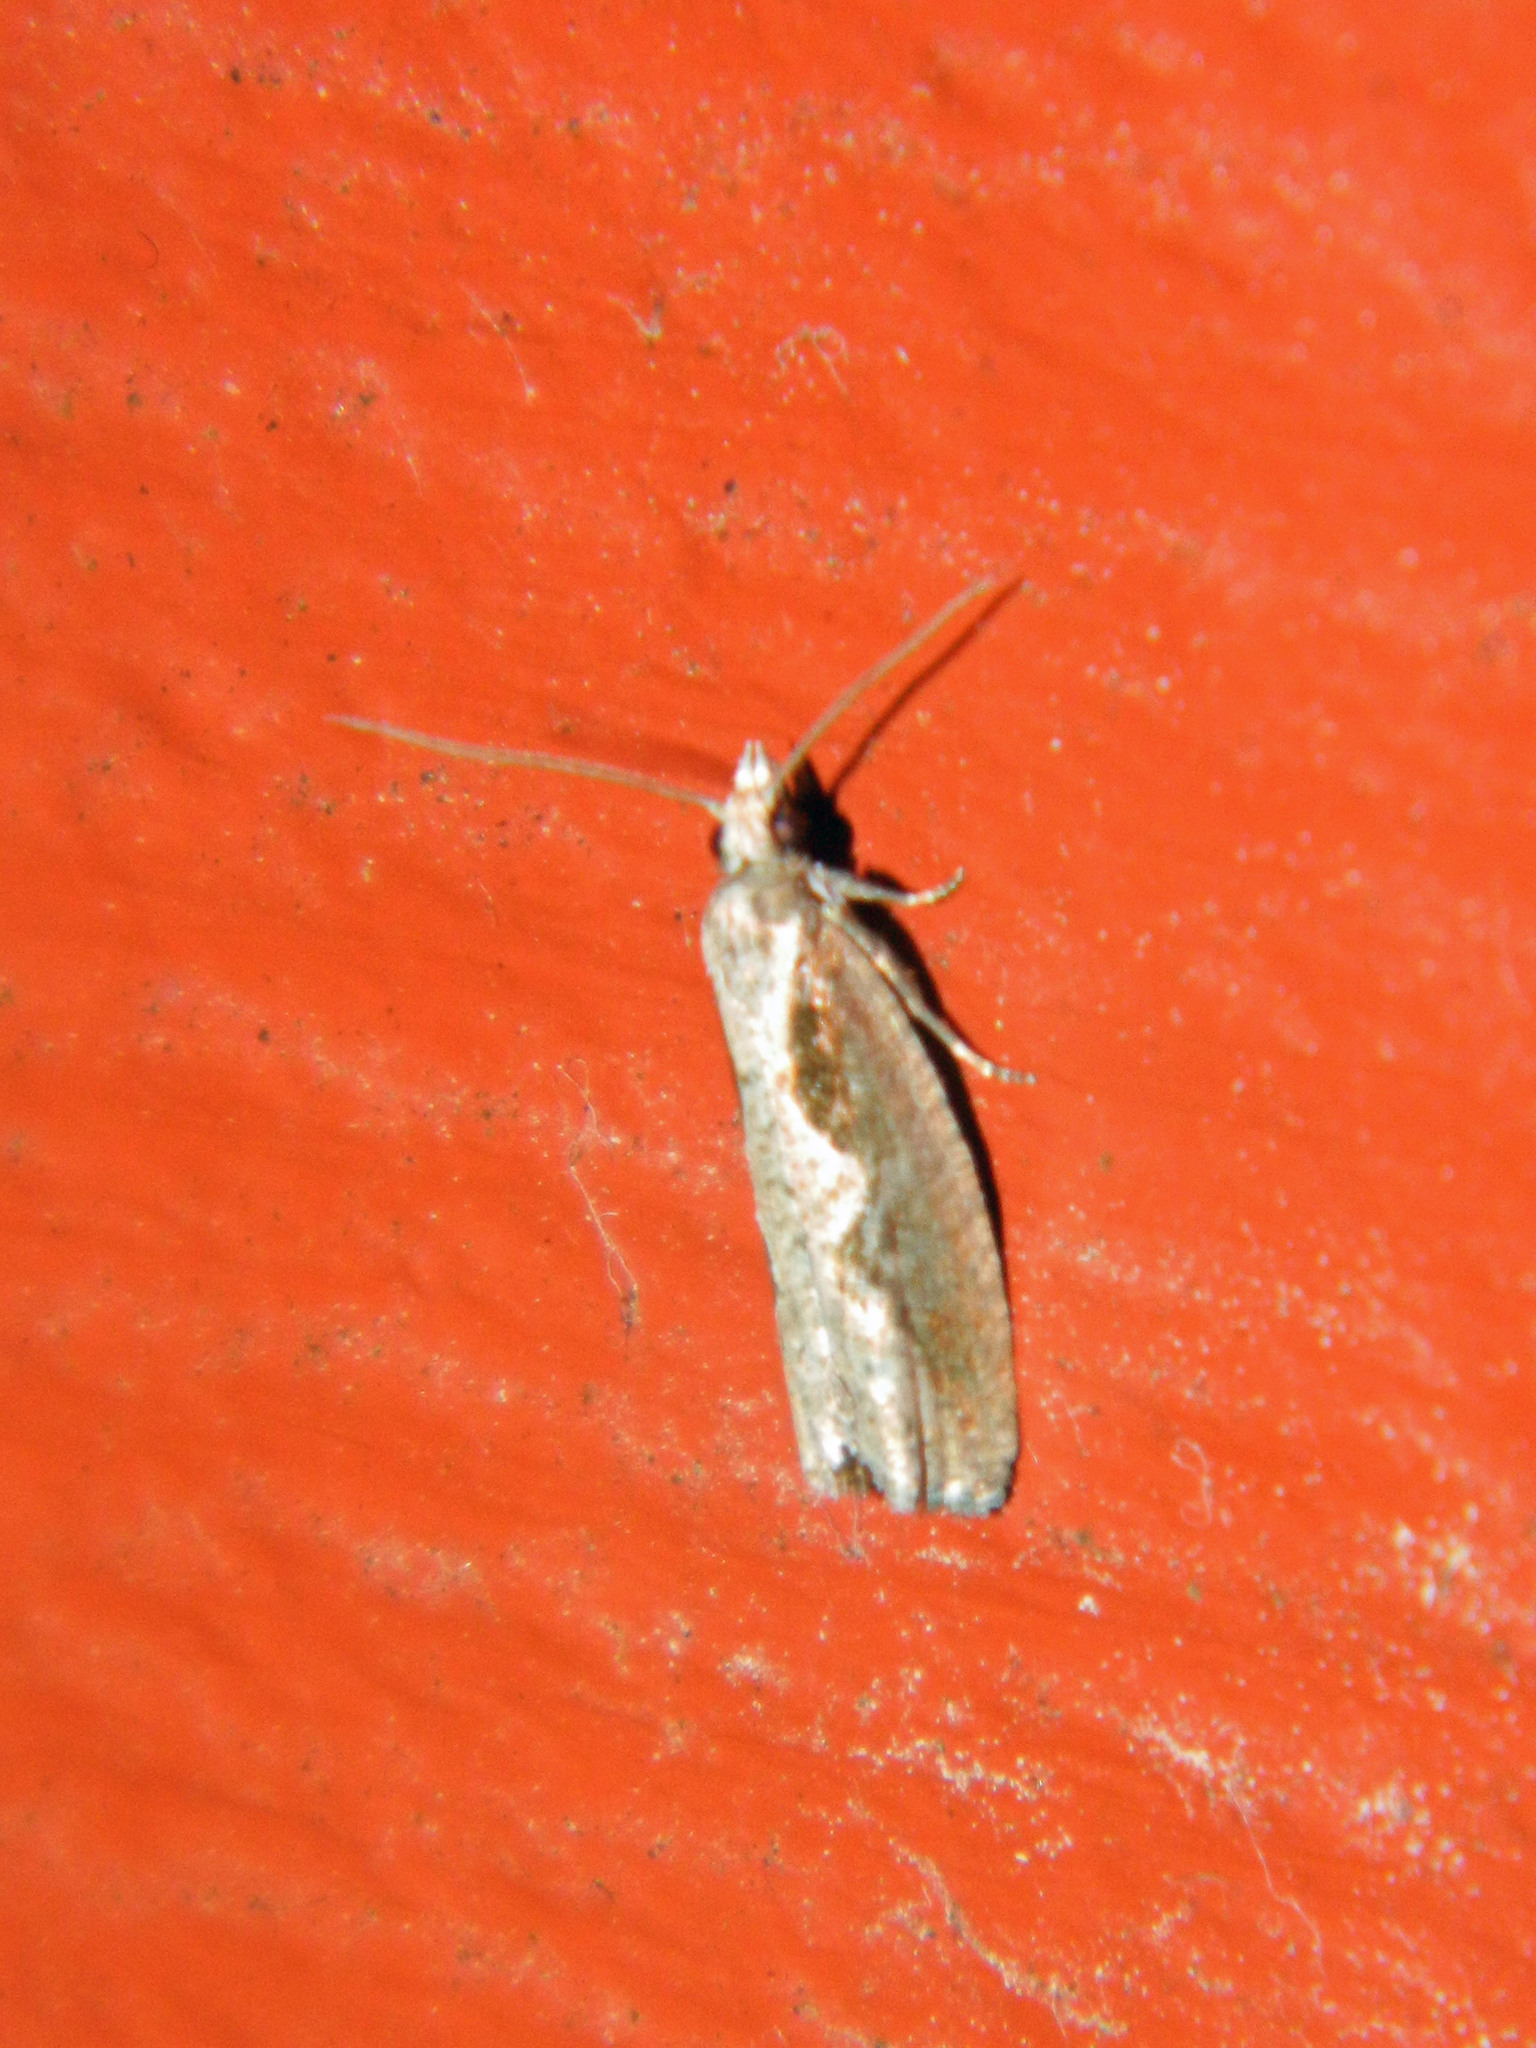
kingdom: Animalia
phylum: Arthropoda
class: Insecta
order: Lepidoptera
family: Tortricidae
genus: Epinotia
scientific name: Epinotia lindana
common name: Diamondback epinotia moth
